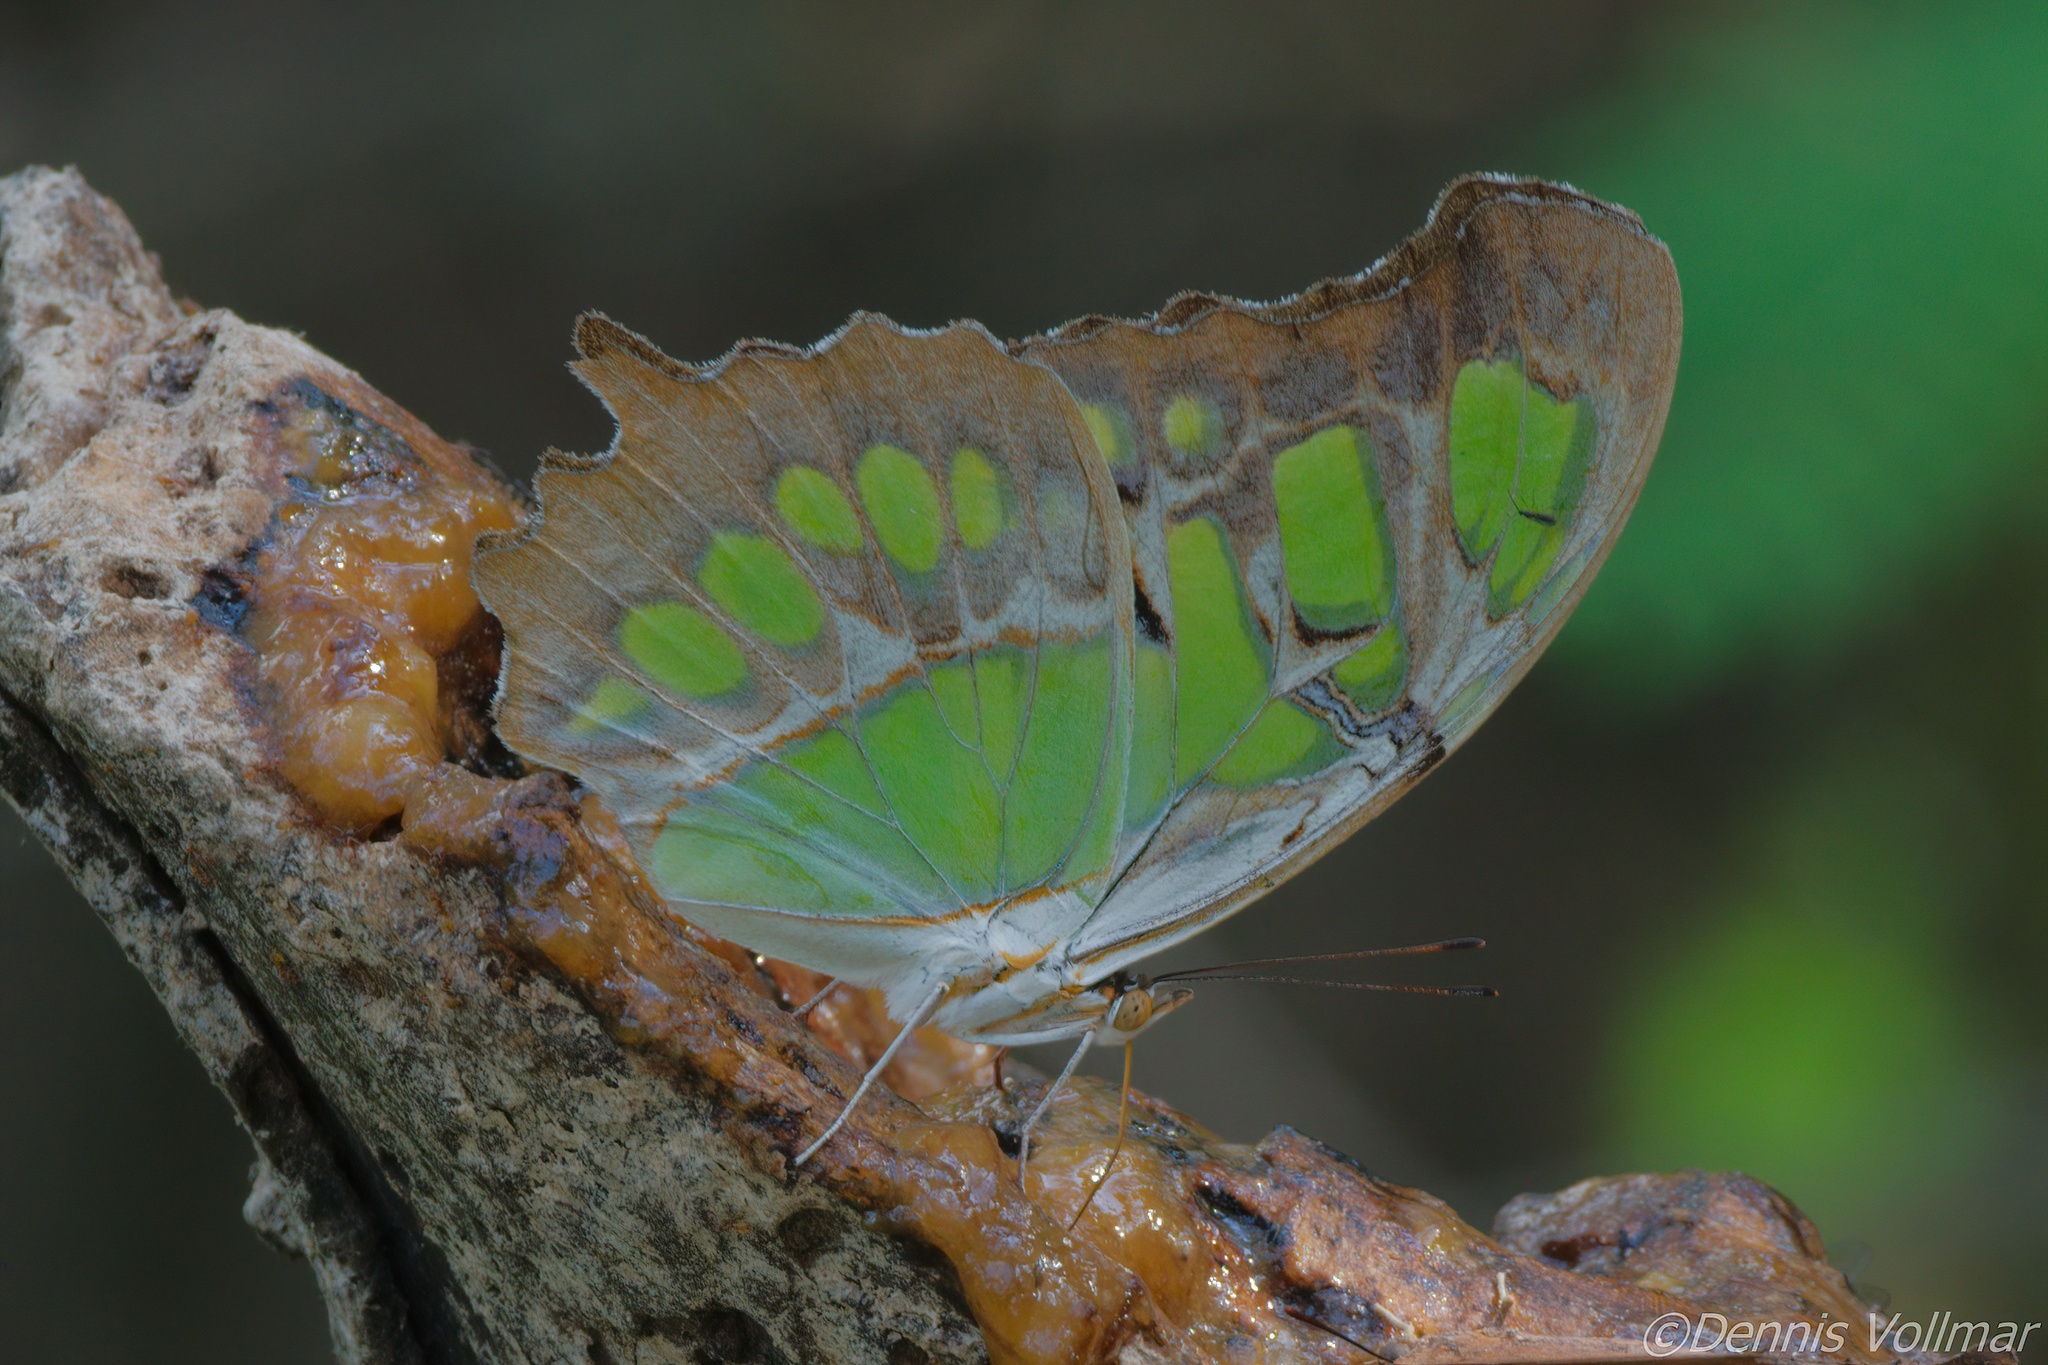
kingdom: Animalia
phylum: Arthropoda
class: Insecta
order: Lepidoptera
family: Nymphalidae
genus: Siproeta
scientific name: Siproeta stelenes
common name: Malachite
